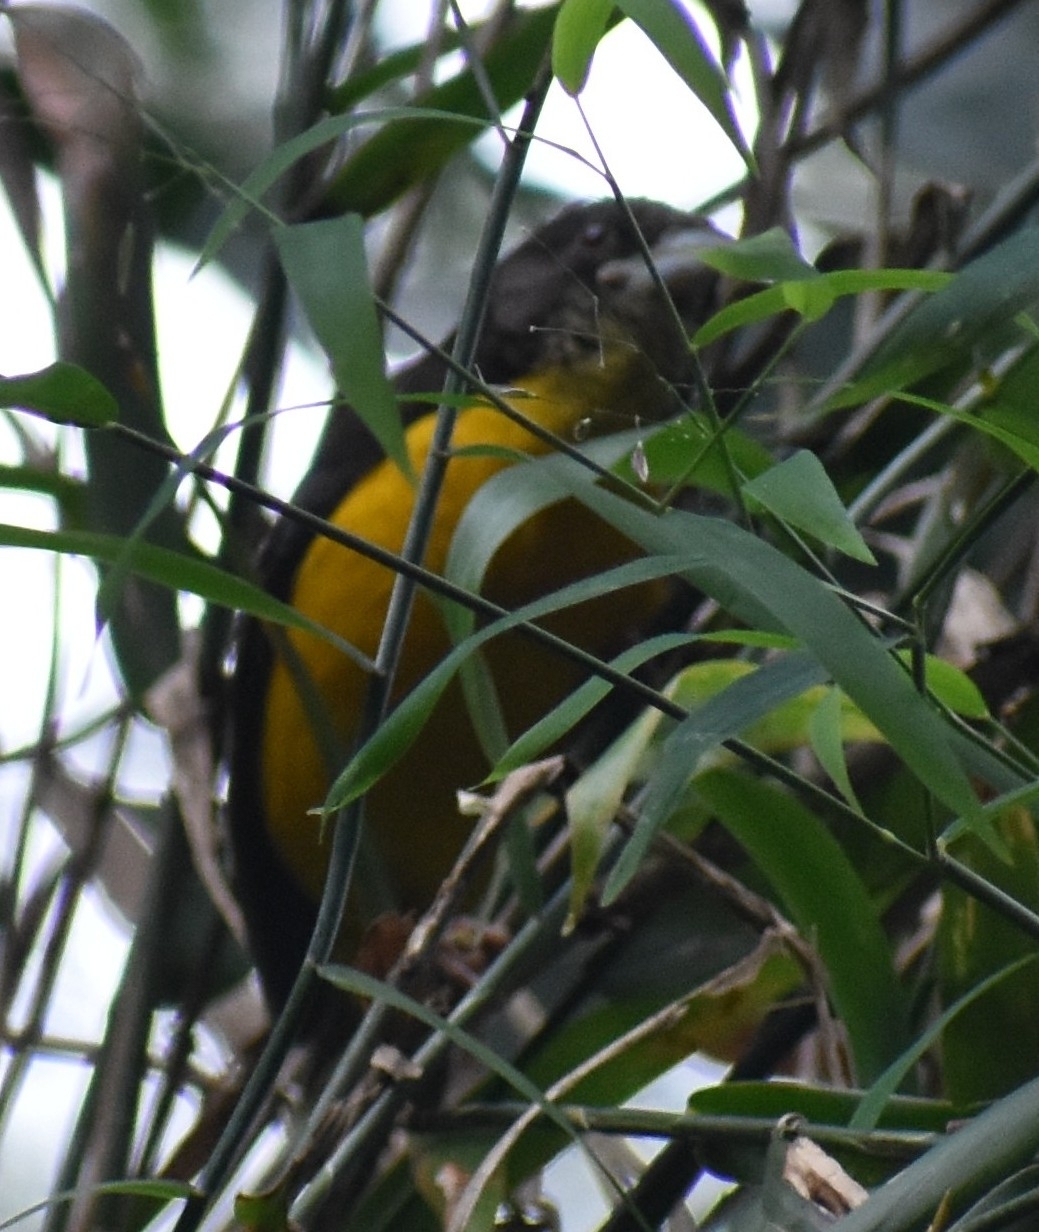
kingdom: Animalia
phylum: Chordata
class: Aves
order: Passeriformes
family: Ploceidae
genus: Ploceus
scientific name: Ploceus bicolor
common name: Dark-backed weaver
